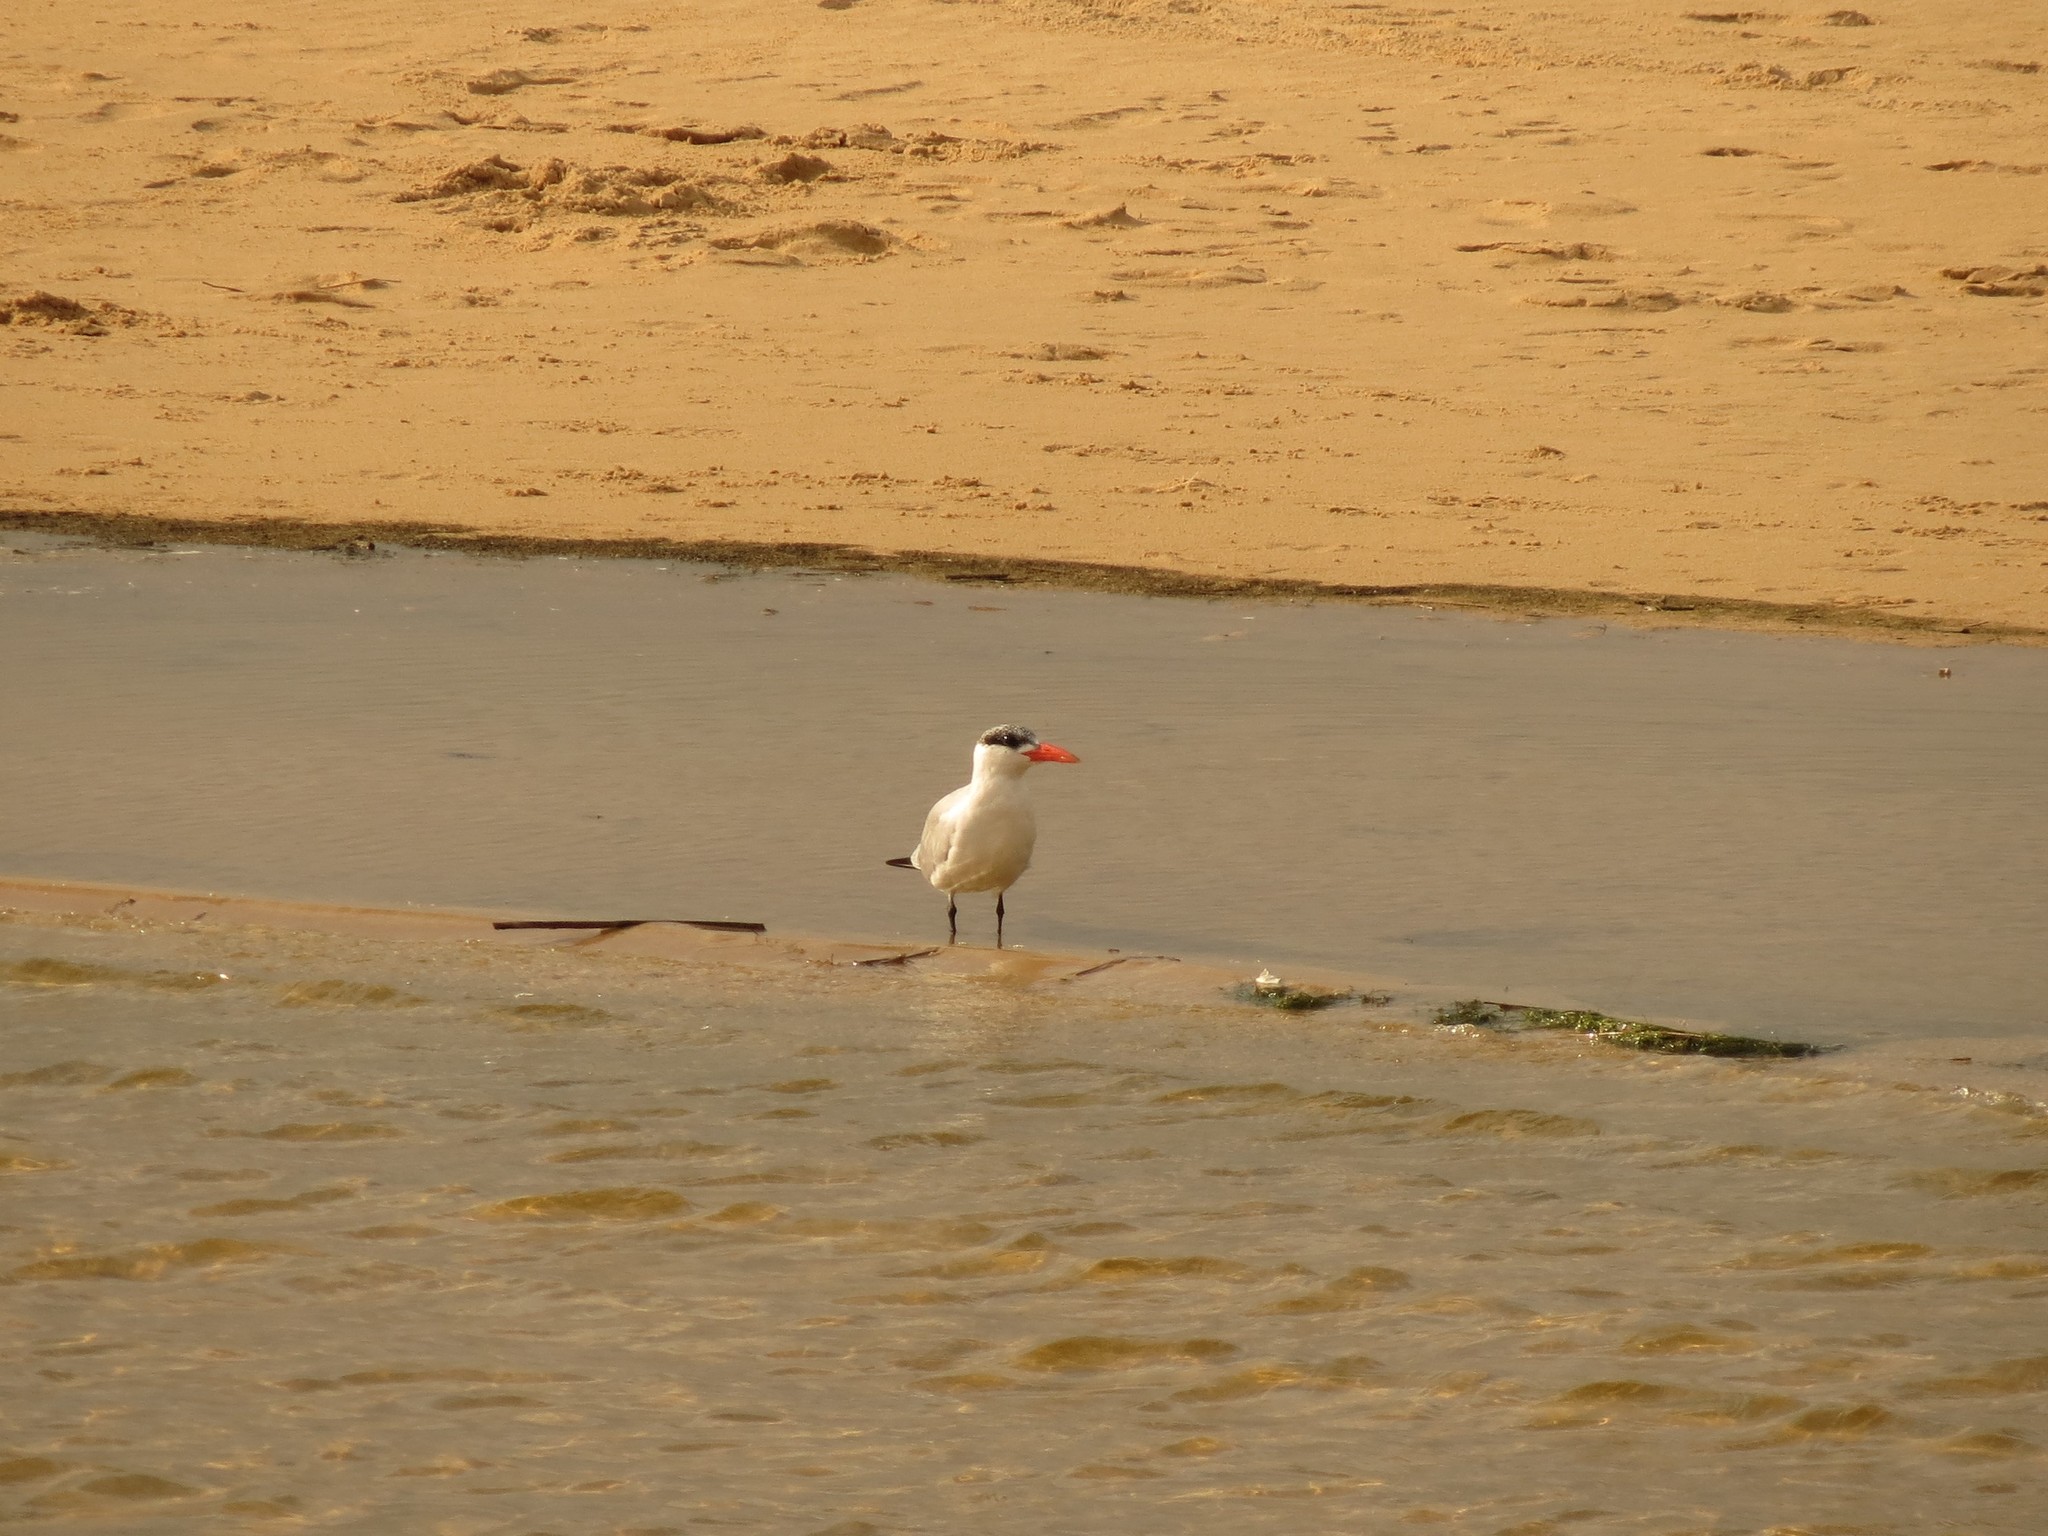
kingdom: Animalia
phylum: Chordata
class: Aves
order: Charadriiformes
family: Laridae
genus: Hydroprogne
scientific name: Hydroprogne caspia
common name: Caspian tern
